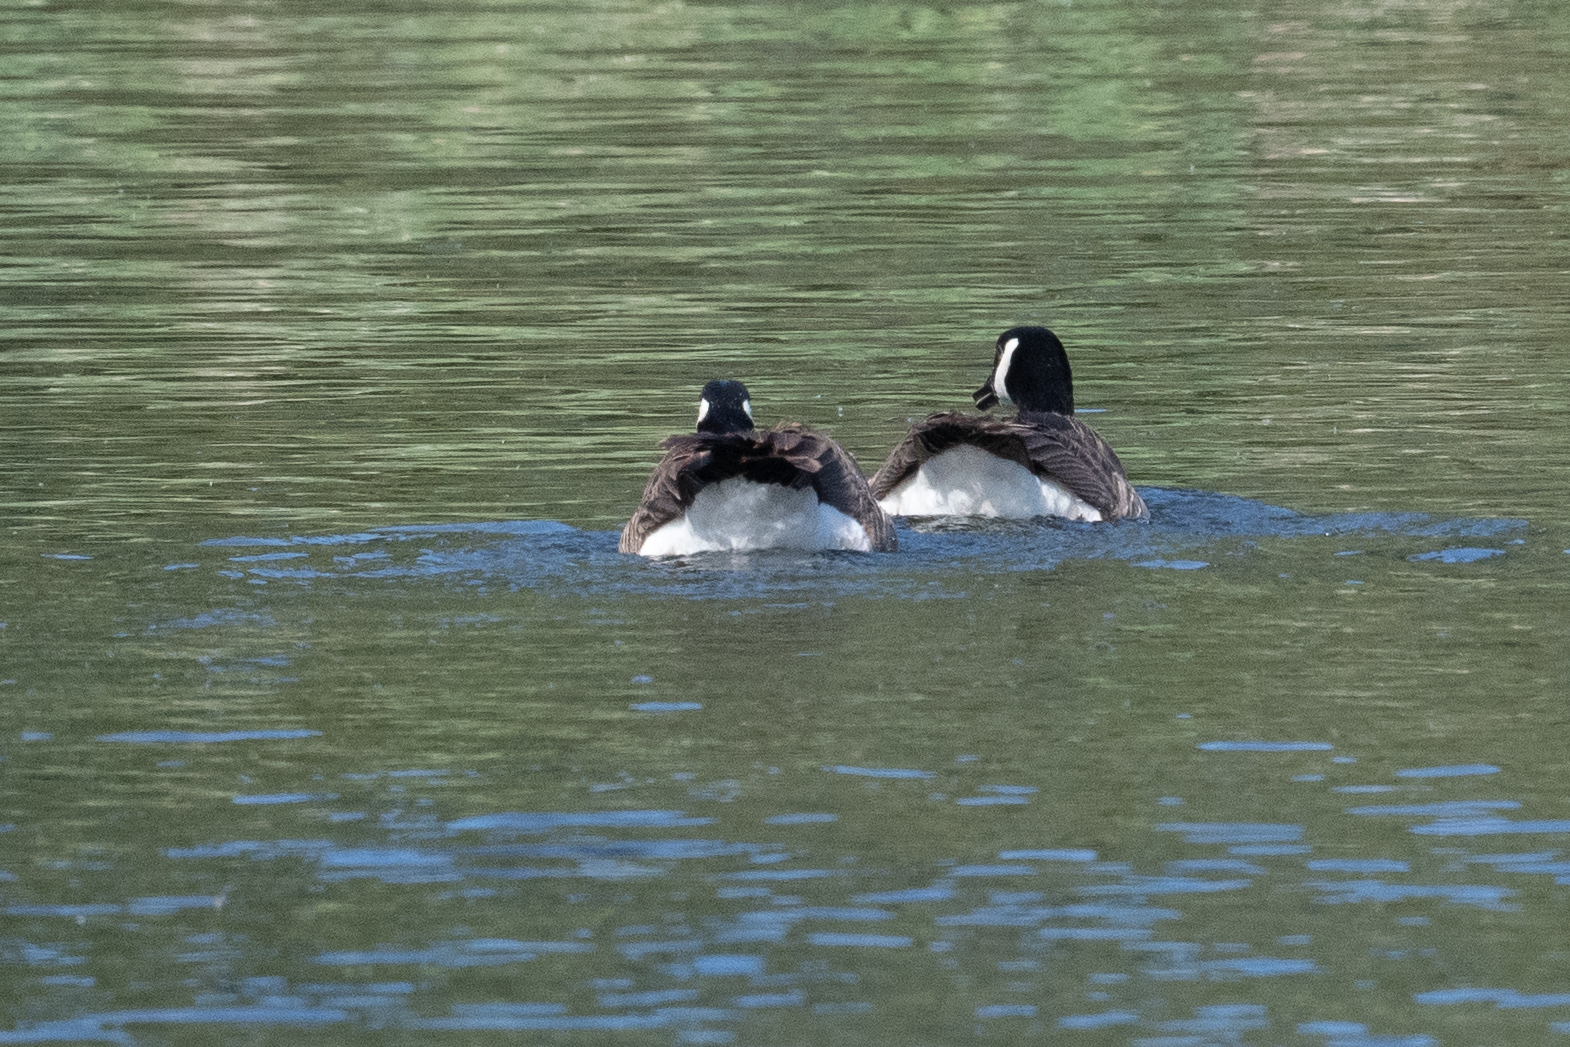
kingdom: Animalia
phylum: Chordata
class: Aves
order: Anseriformes
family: Anatidae
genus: Branta
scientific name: Branta canadensis
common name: Canada goose
